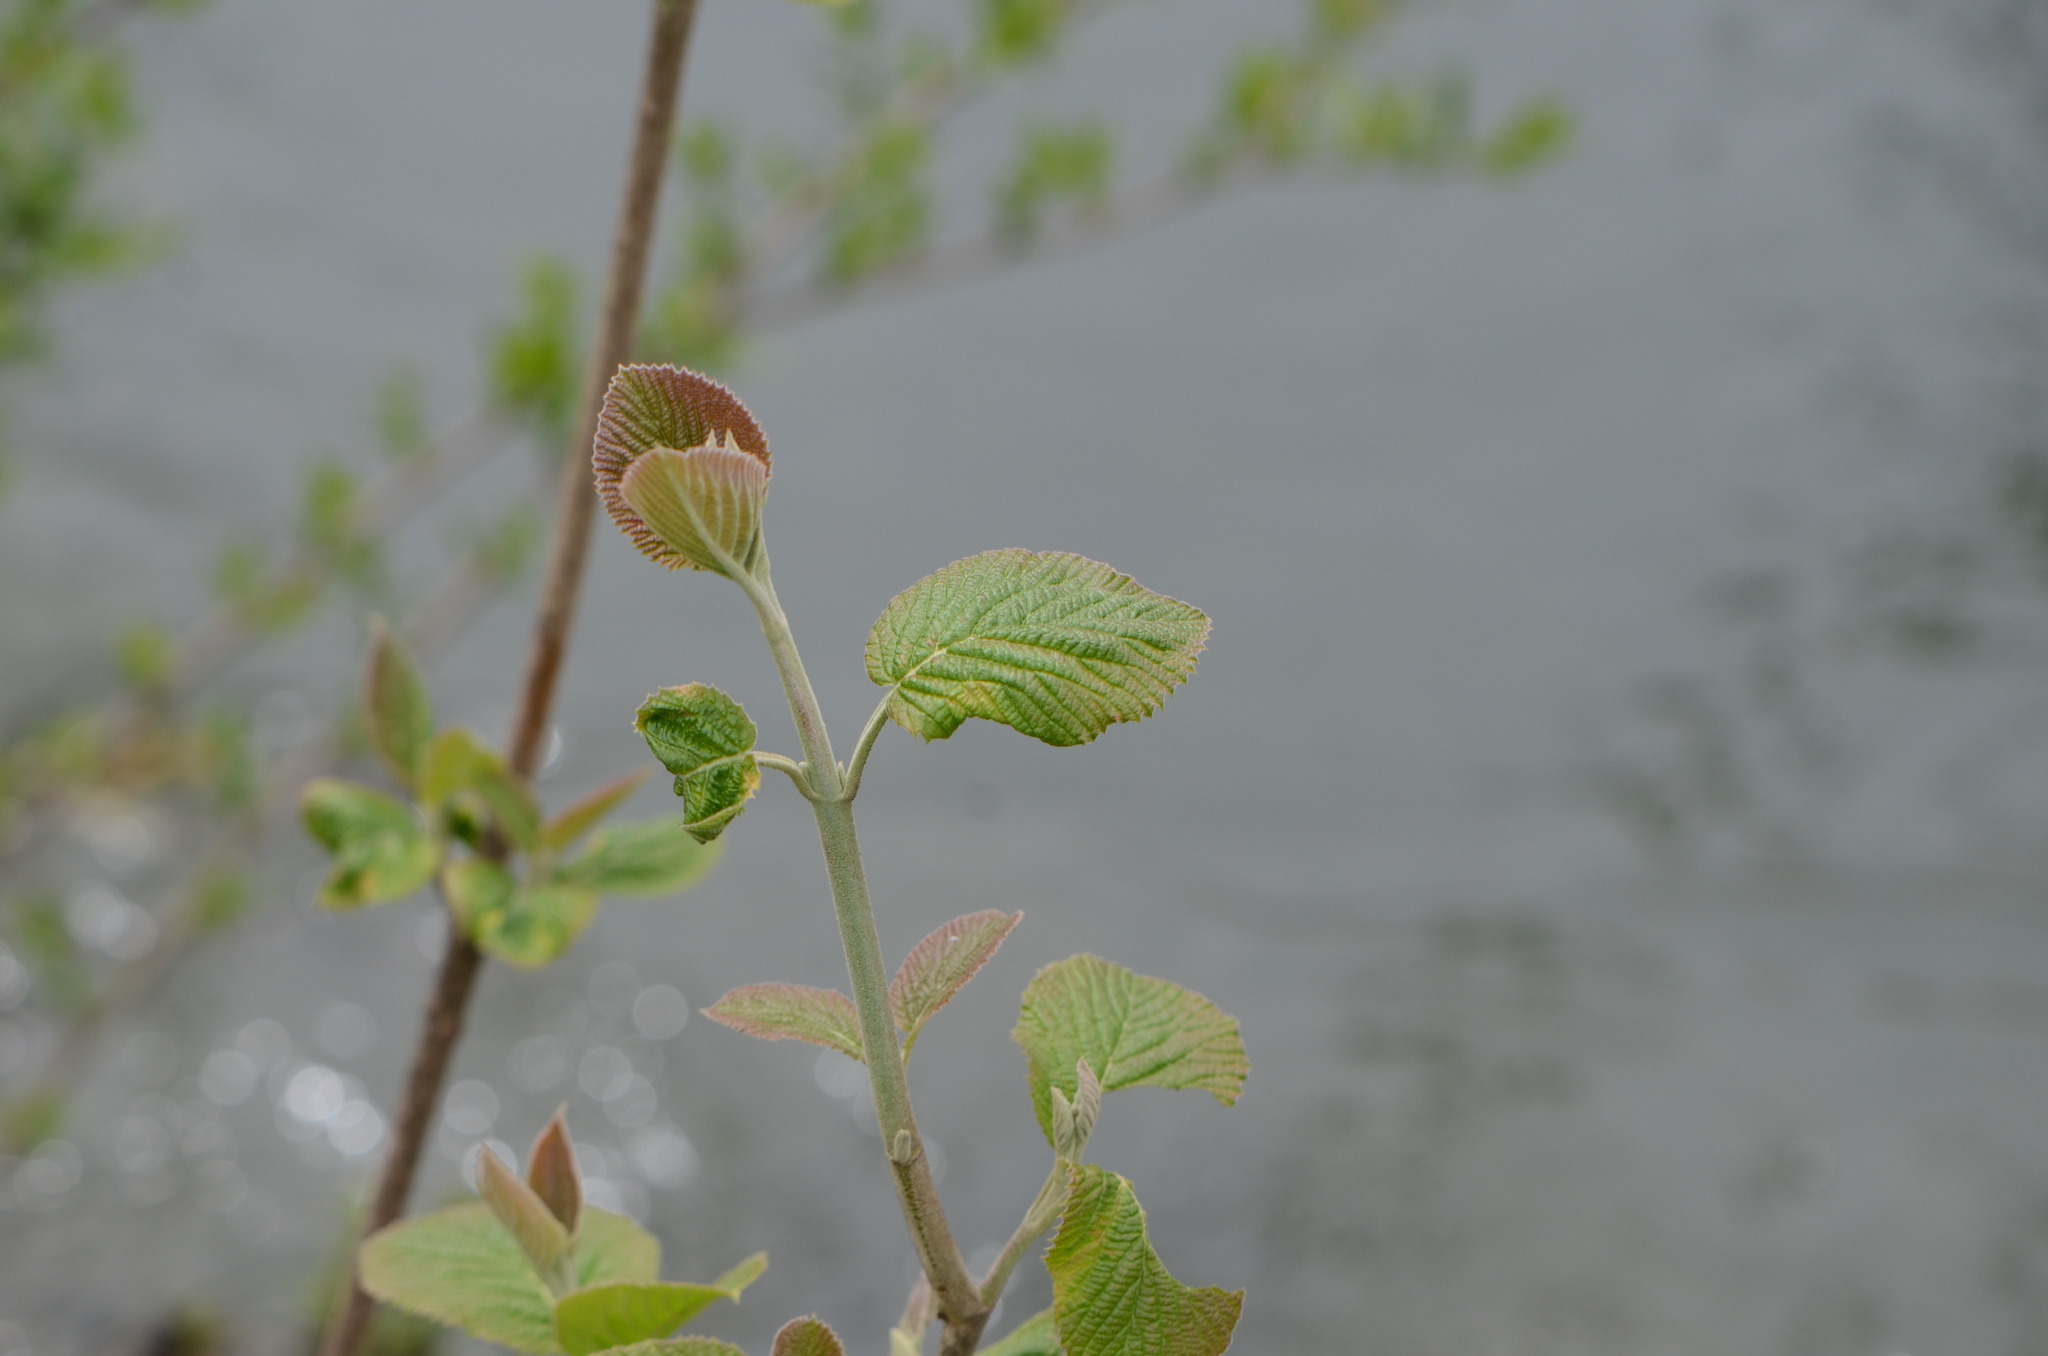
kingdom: Plantae
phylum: Tracheophyta
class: Magnoliopsida
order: Dipsacales
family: Viburnaceae
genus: Viburnum
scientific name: Viburnum lantana
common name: Wayfaring tree
